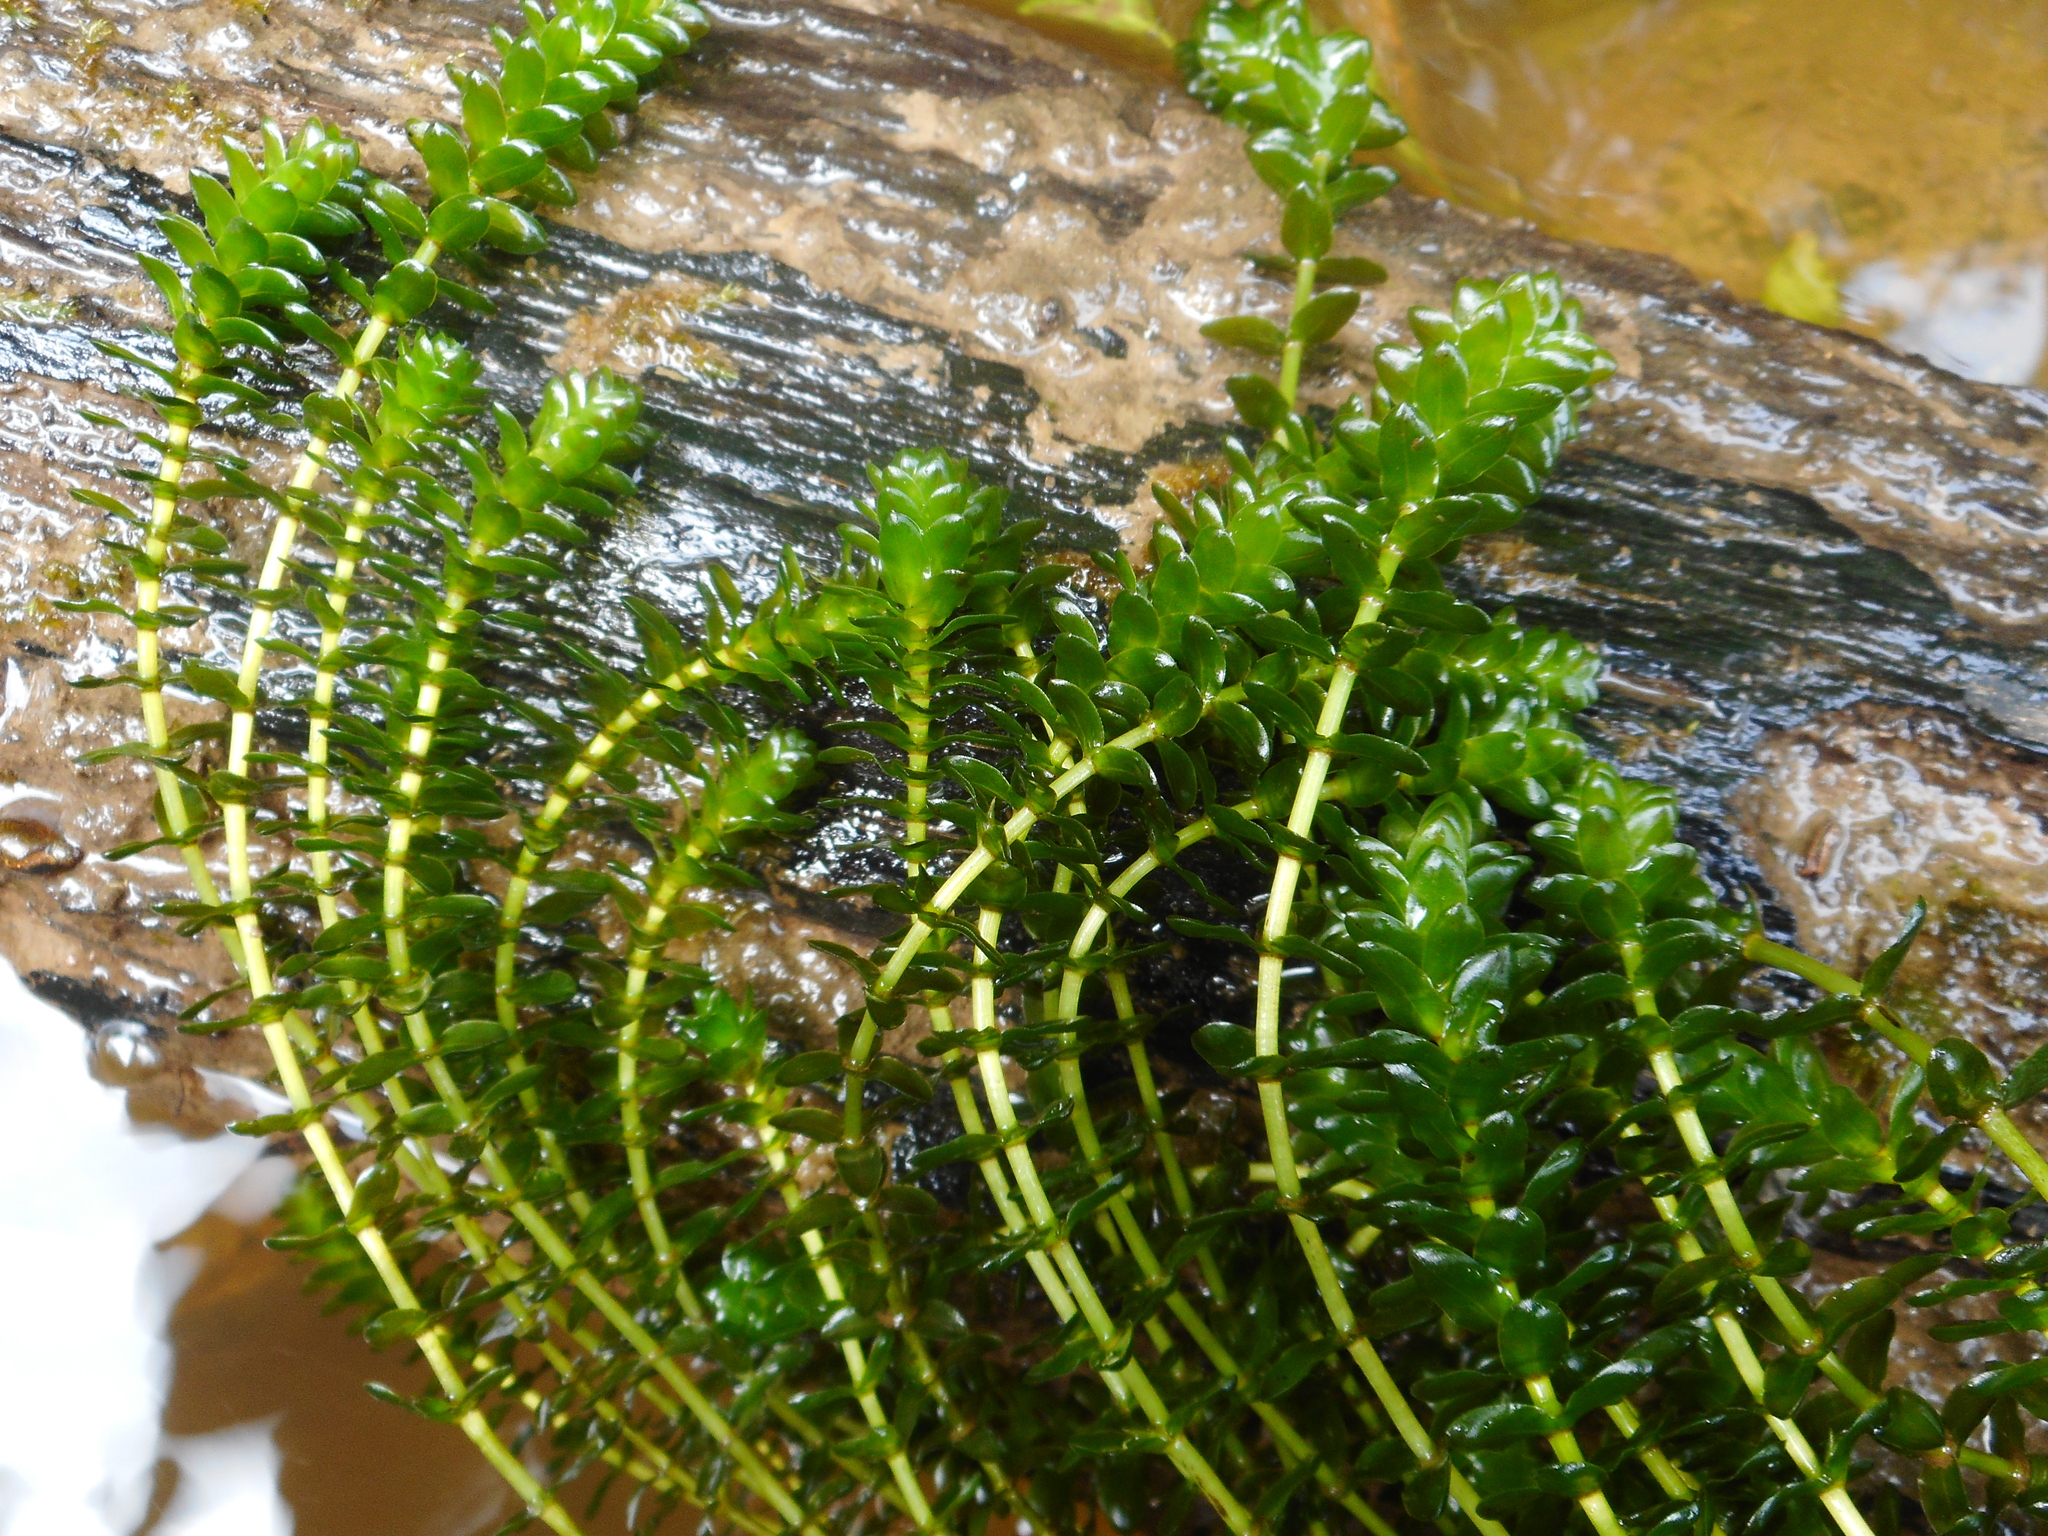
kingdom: Plantae
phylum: Tracheophyta
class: Liliopsida
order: Alismatales
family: Hydrocharitaceae
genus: Elodea
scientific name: Elodea canadensis
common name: Canadian waterweed
